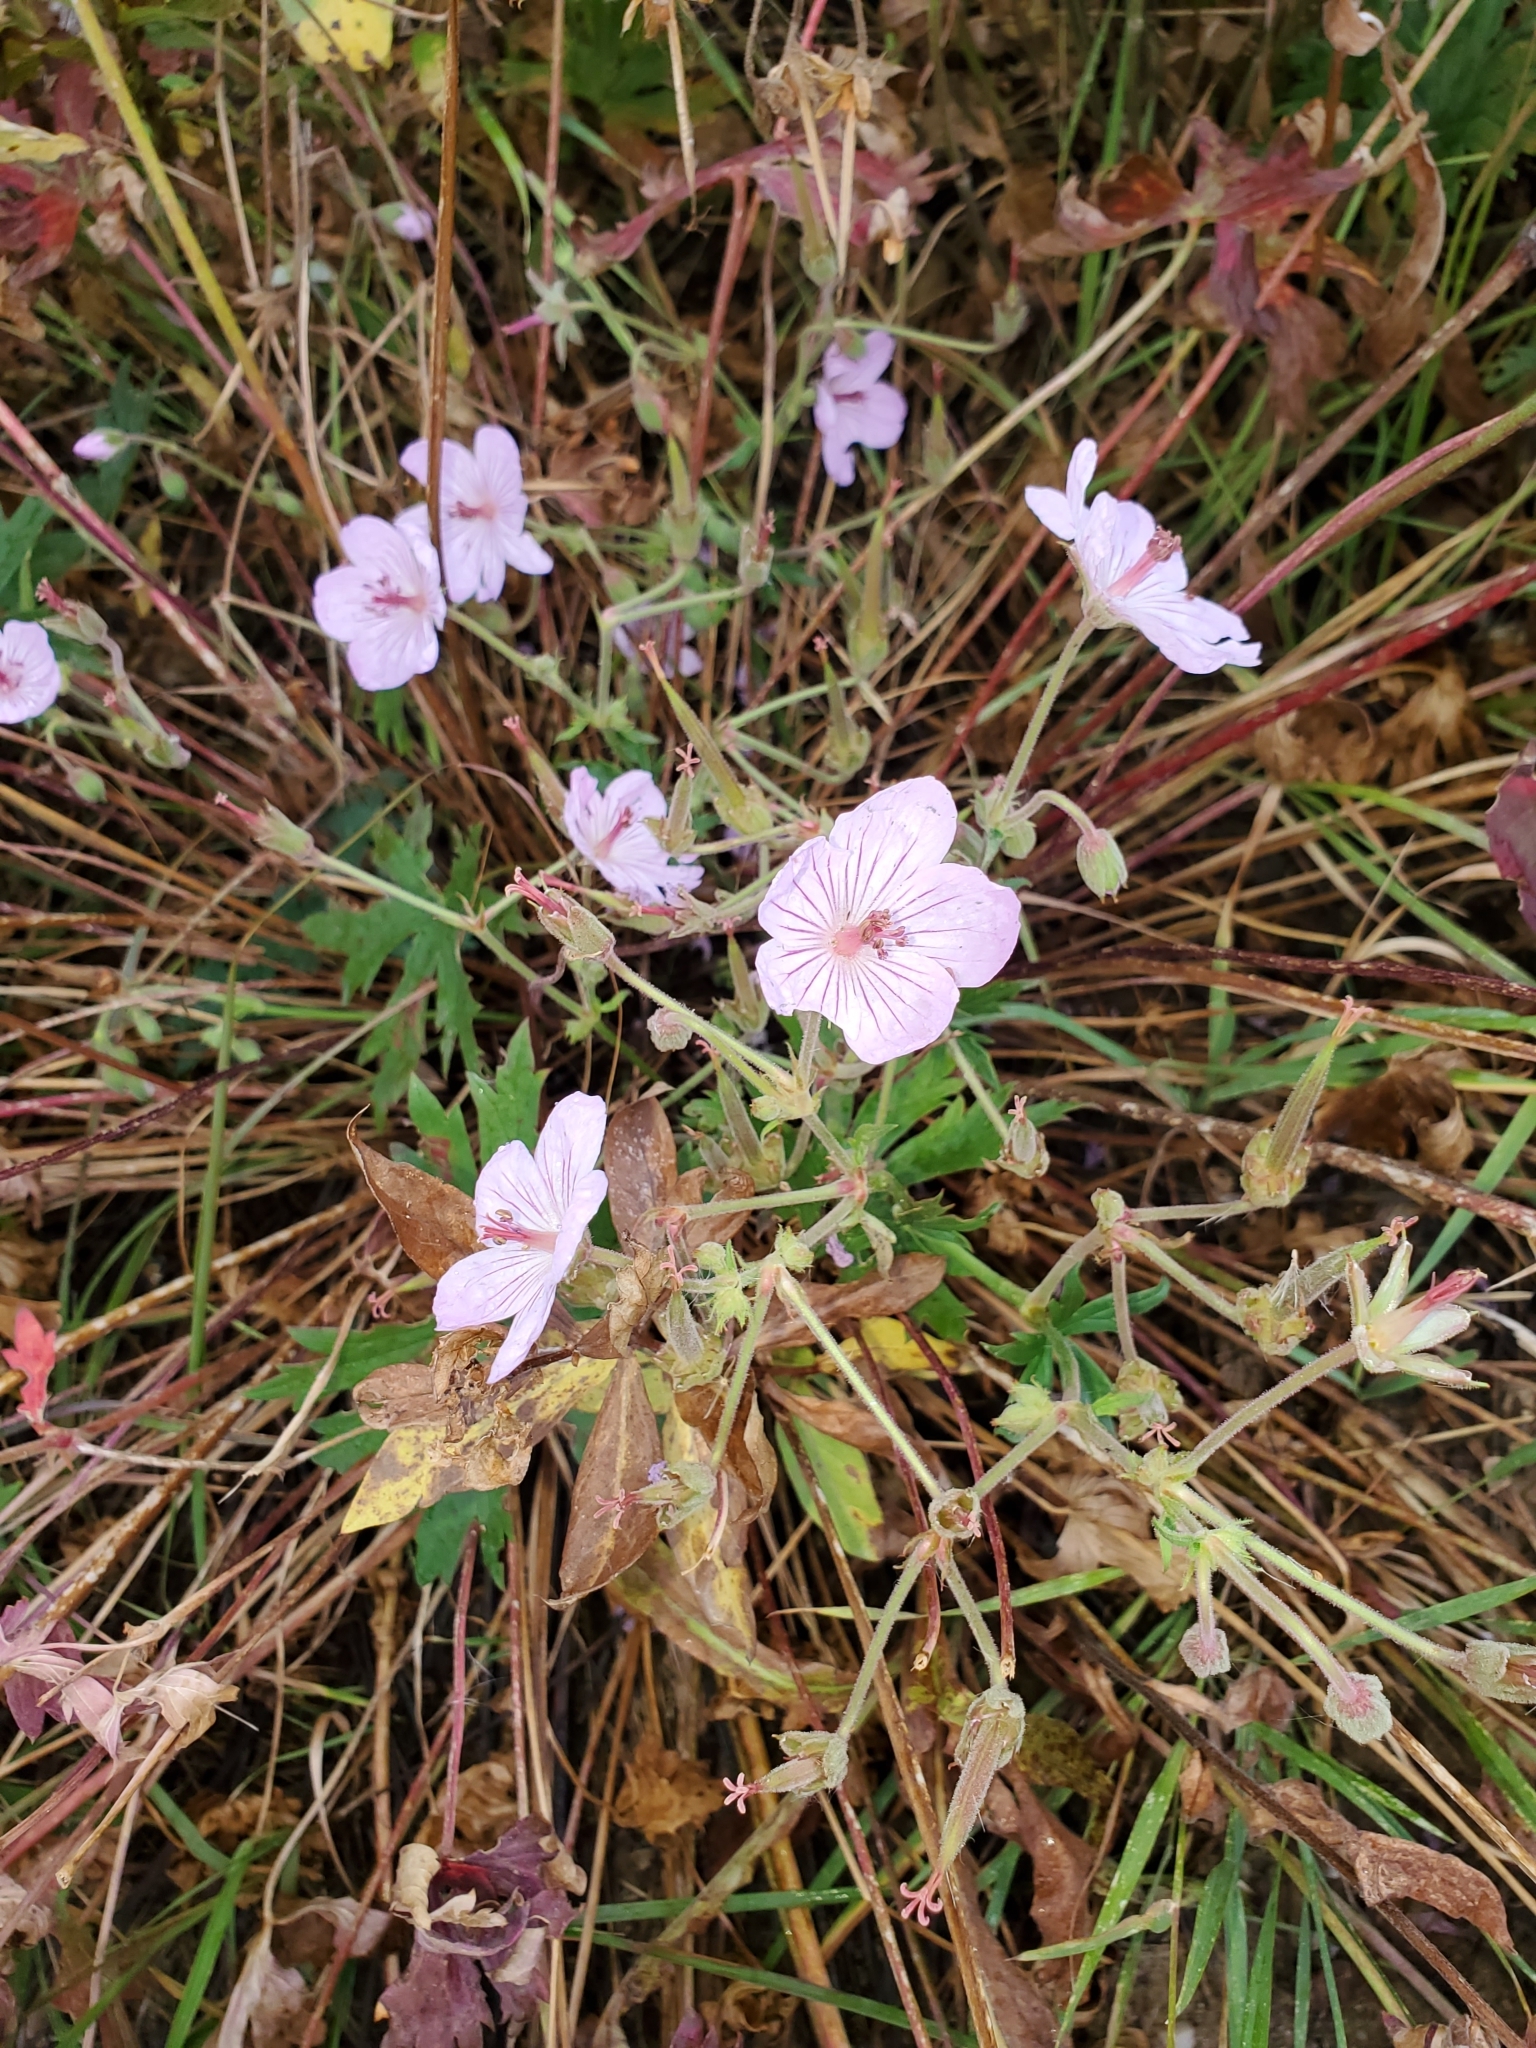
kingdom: Plantae
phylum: Tracheophyta
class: Magnoliopsida
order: Geraniales
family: Geraniaceae
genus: Geranium
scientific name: Geranium viscosissimum
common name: Purple geranium
